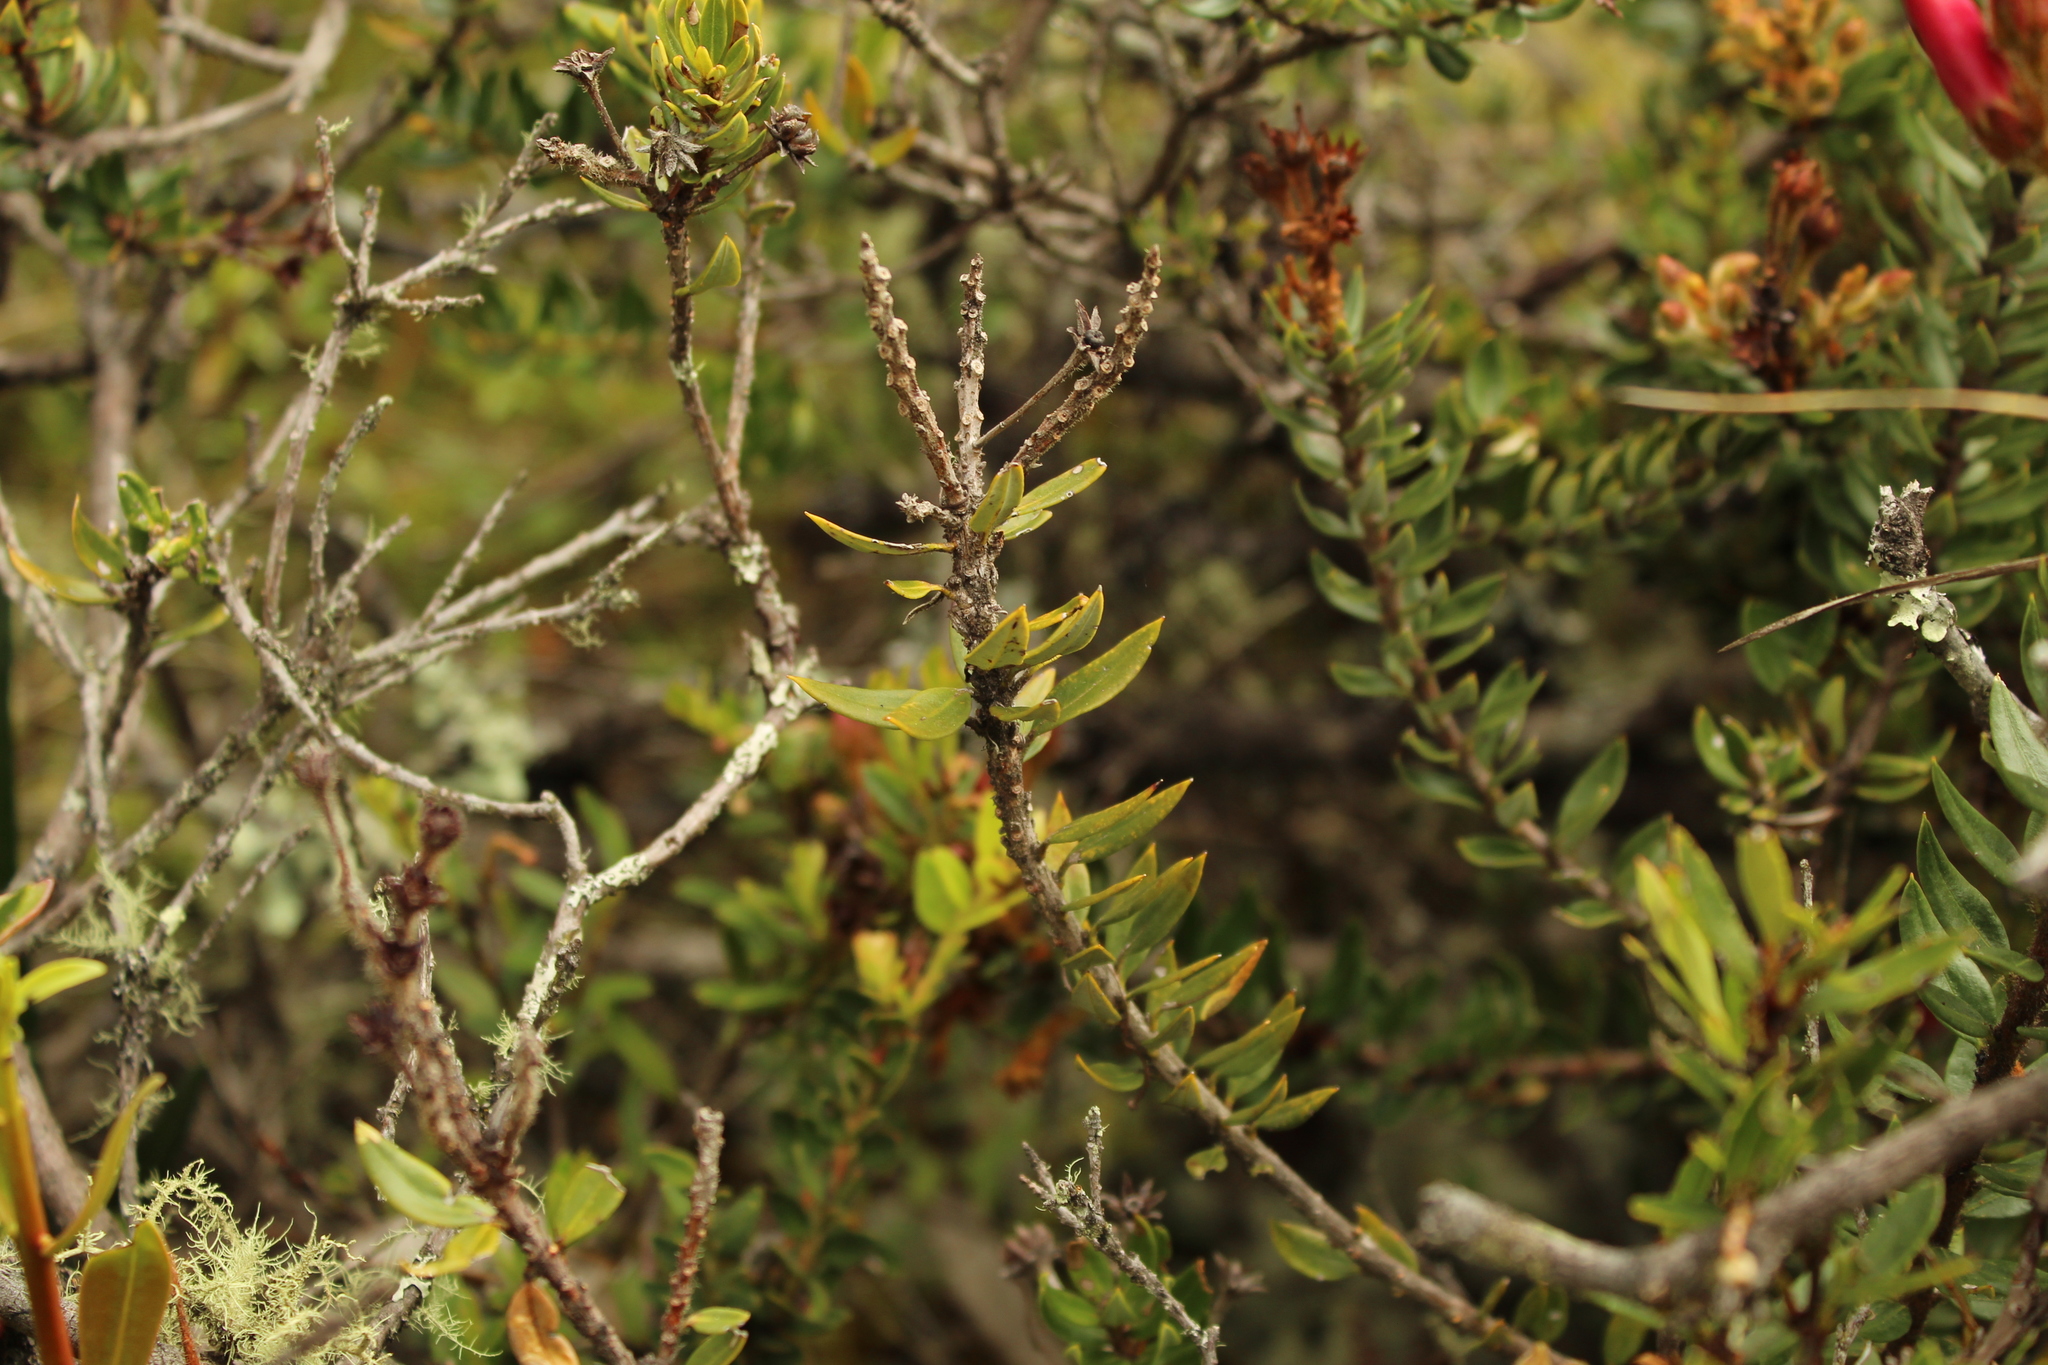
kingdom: Plantae
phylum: Tracheophyta
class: Magnoliopsida
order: Ericales
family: Ericaceae
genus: Bejaria
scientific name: Bejaria mathewsii
